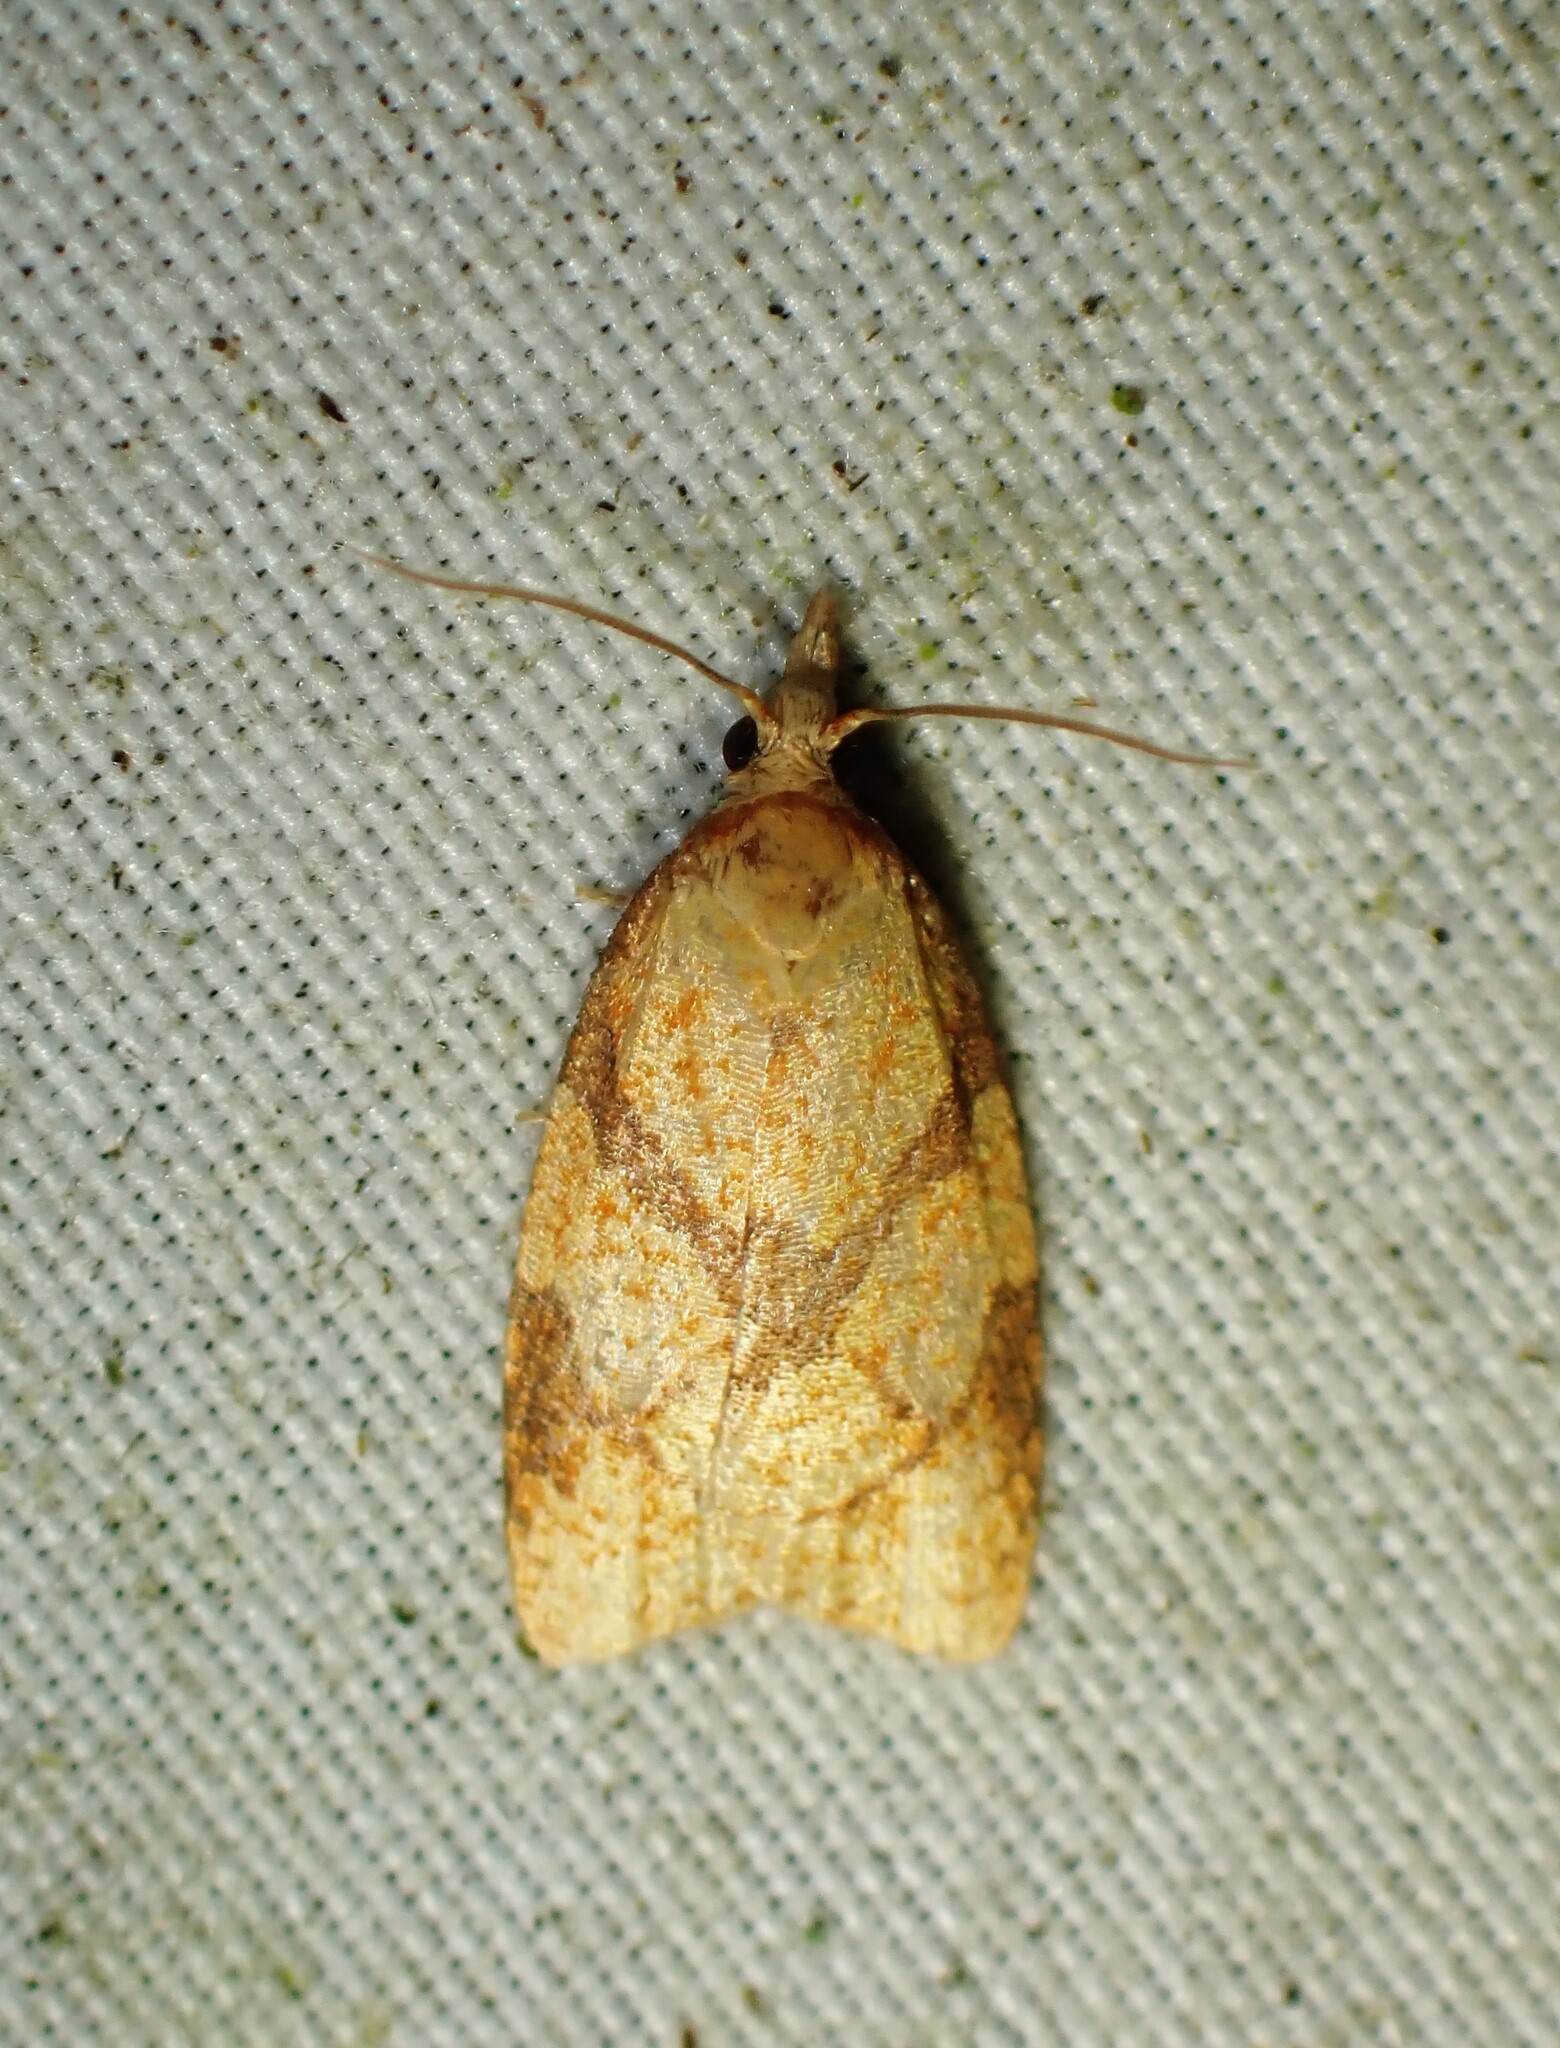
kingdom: Animalia
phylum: Arthropoda
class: Insecta
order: Lepidoptera
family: Tortricidae
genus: Cenopis
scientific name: Cenopis reticulatana
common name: Reticulated fruitworm moth
